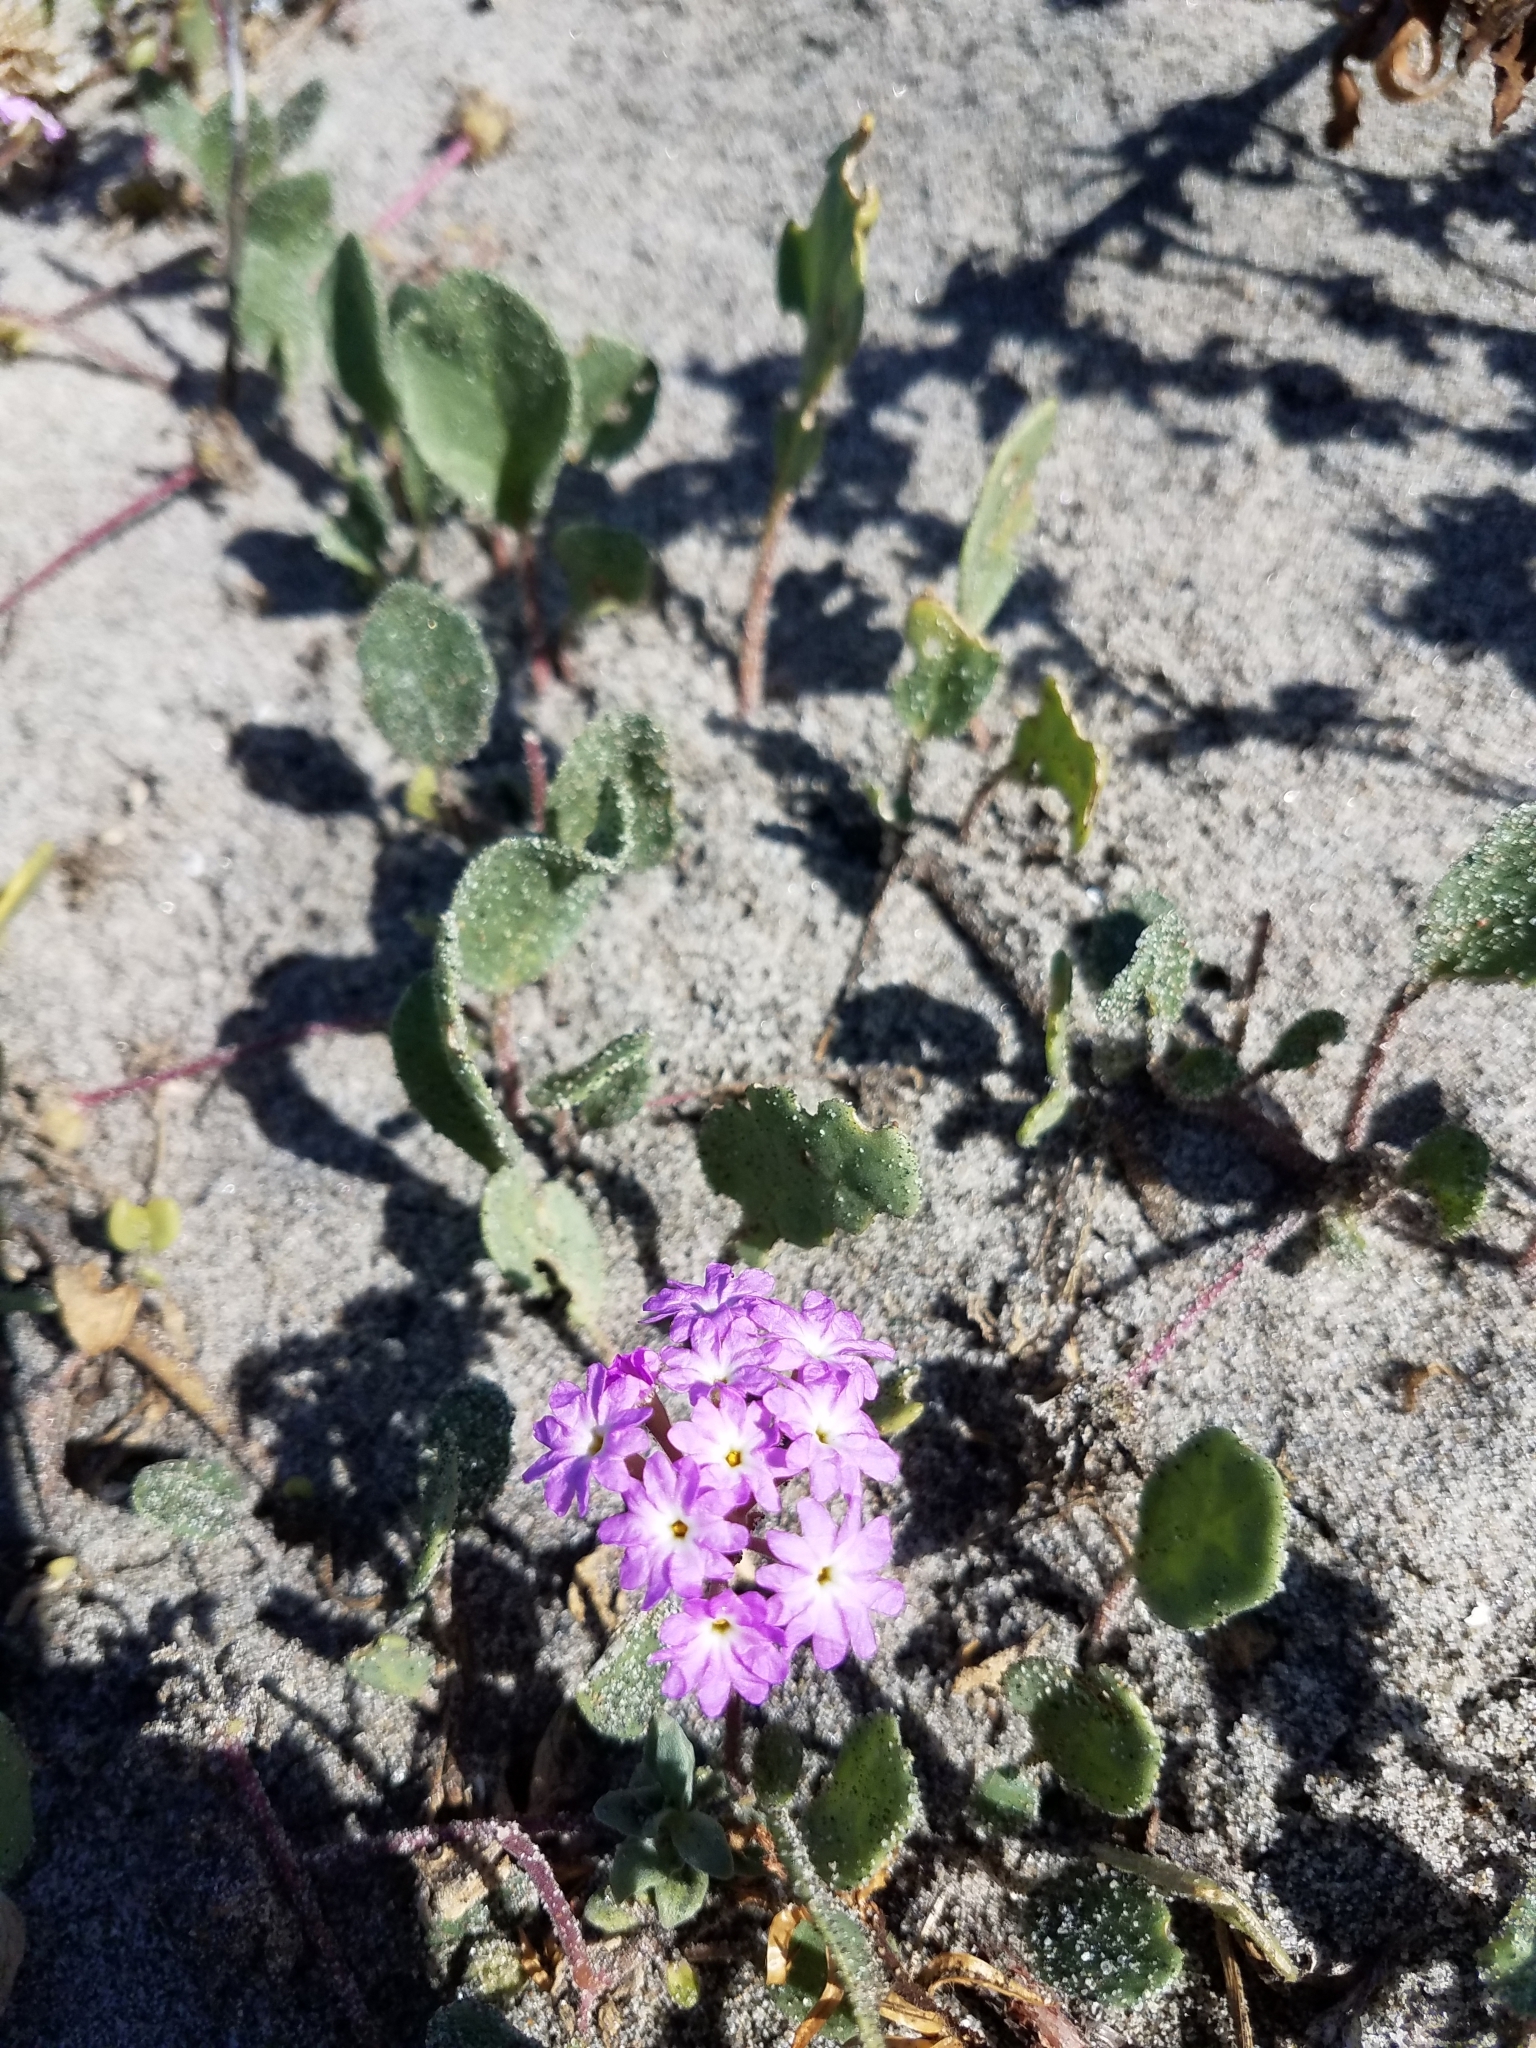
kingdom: Plantae
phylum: Tracheophyta
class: Magnoliopsida
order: Caryophyllales
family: Nyctaginaceae
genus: Abronia
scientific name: Abronia umbellata
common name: Sand-verbena
